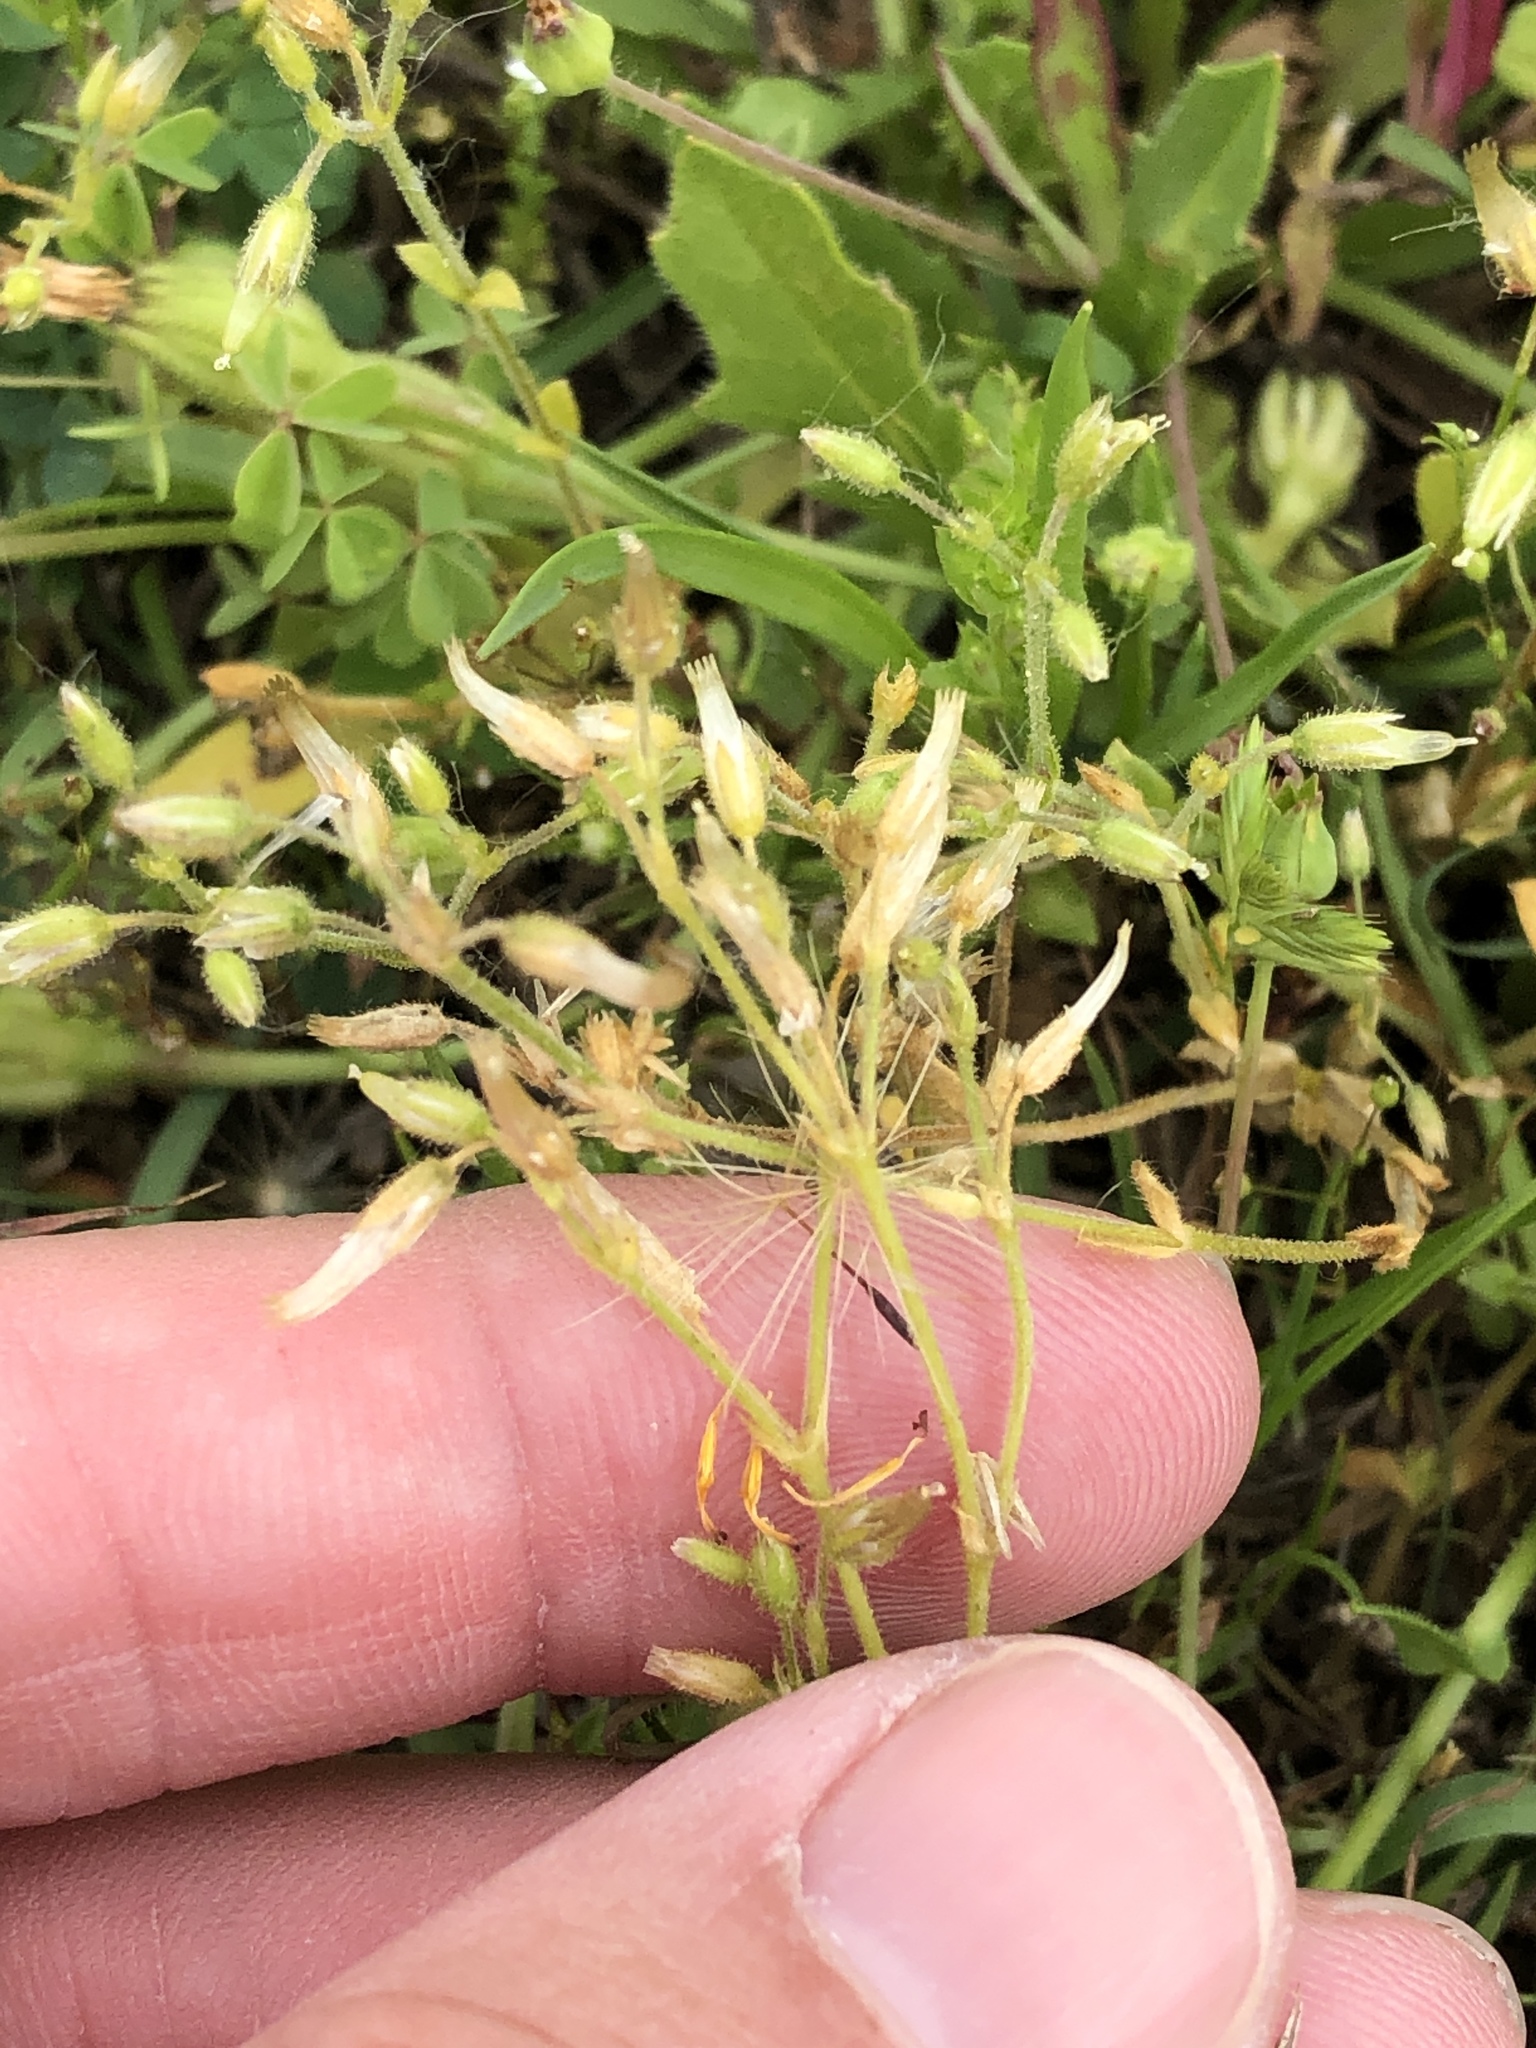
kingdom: Plantae
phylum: Tracheophyta
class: Magnoliopsida
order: Caryophyllales
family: Caryophyllaceae
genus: Cerastium
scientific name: Cerastium glomeratum
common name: Sticky chickweed
